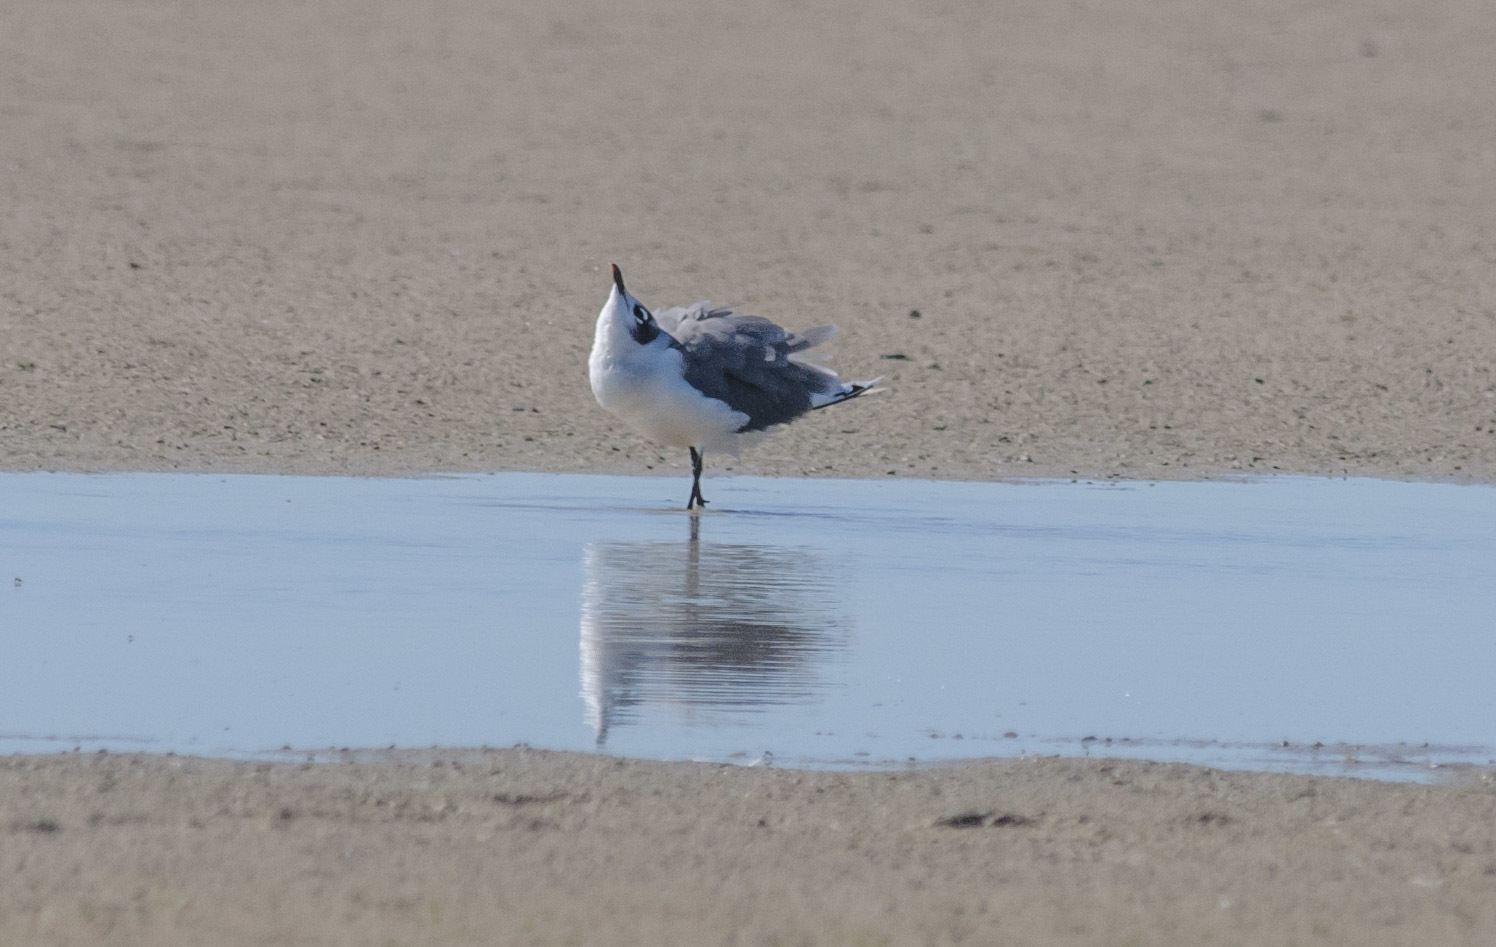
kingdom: Animalia
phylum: Chordata
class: Aves
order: Charadriiformes
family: Laridae
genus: Leucophaeus
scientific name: Leucophaeus pipixcan
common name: Franklin's gull
